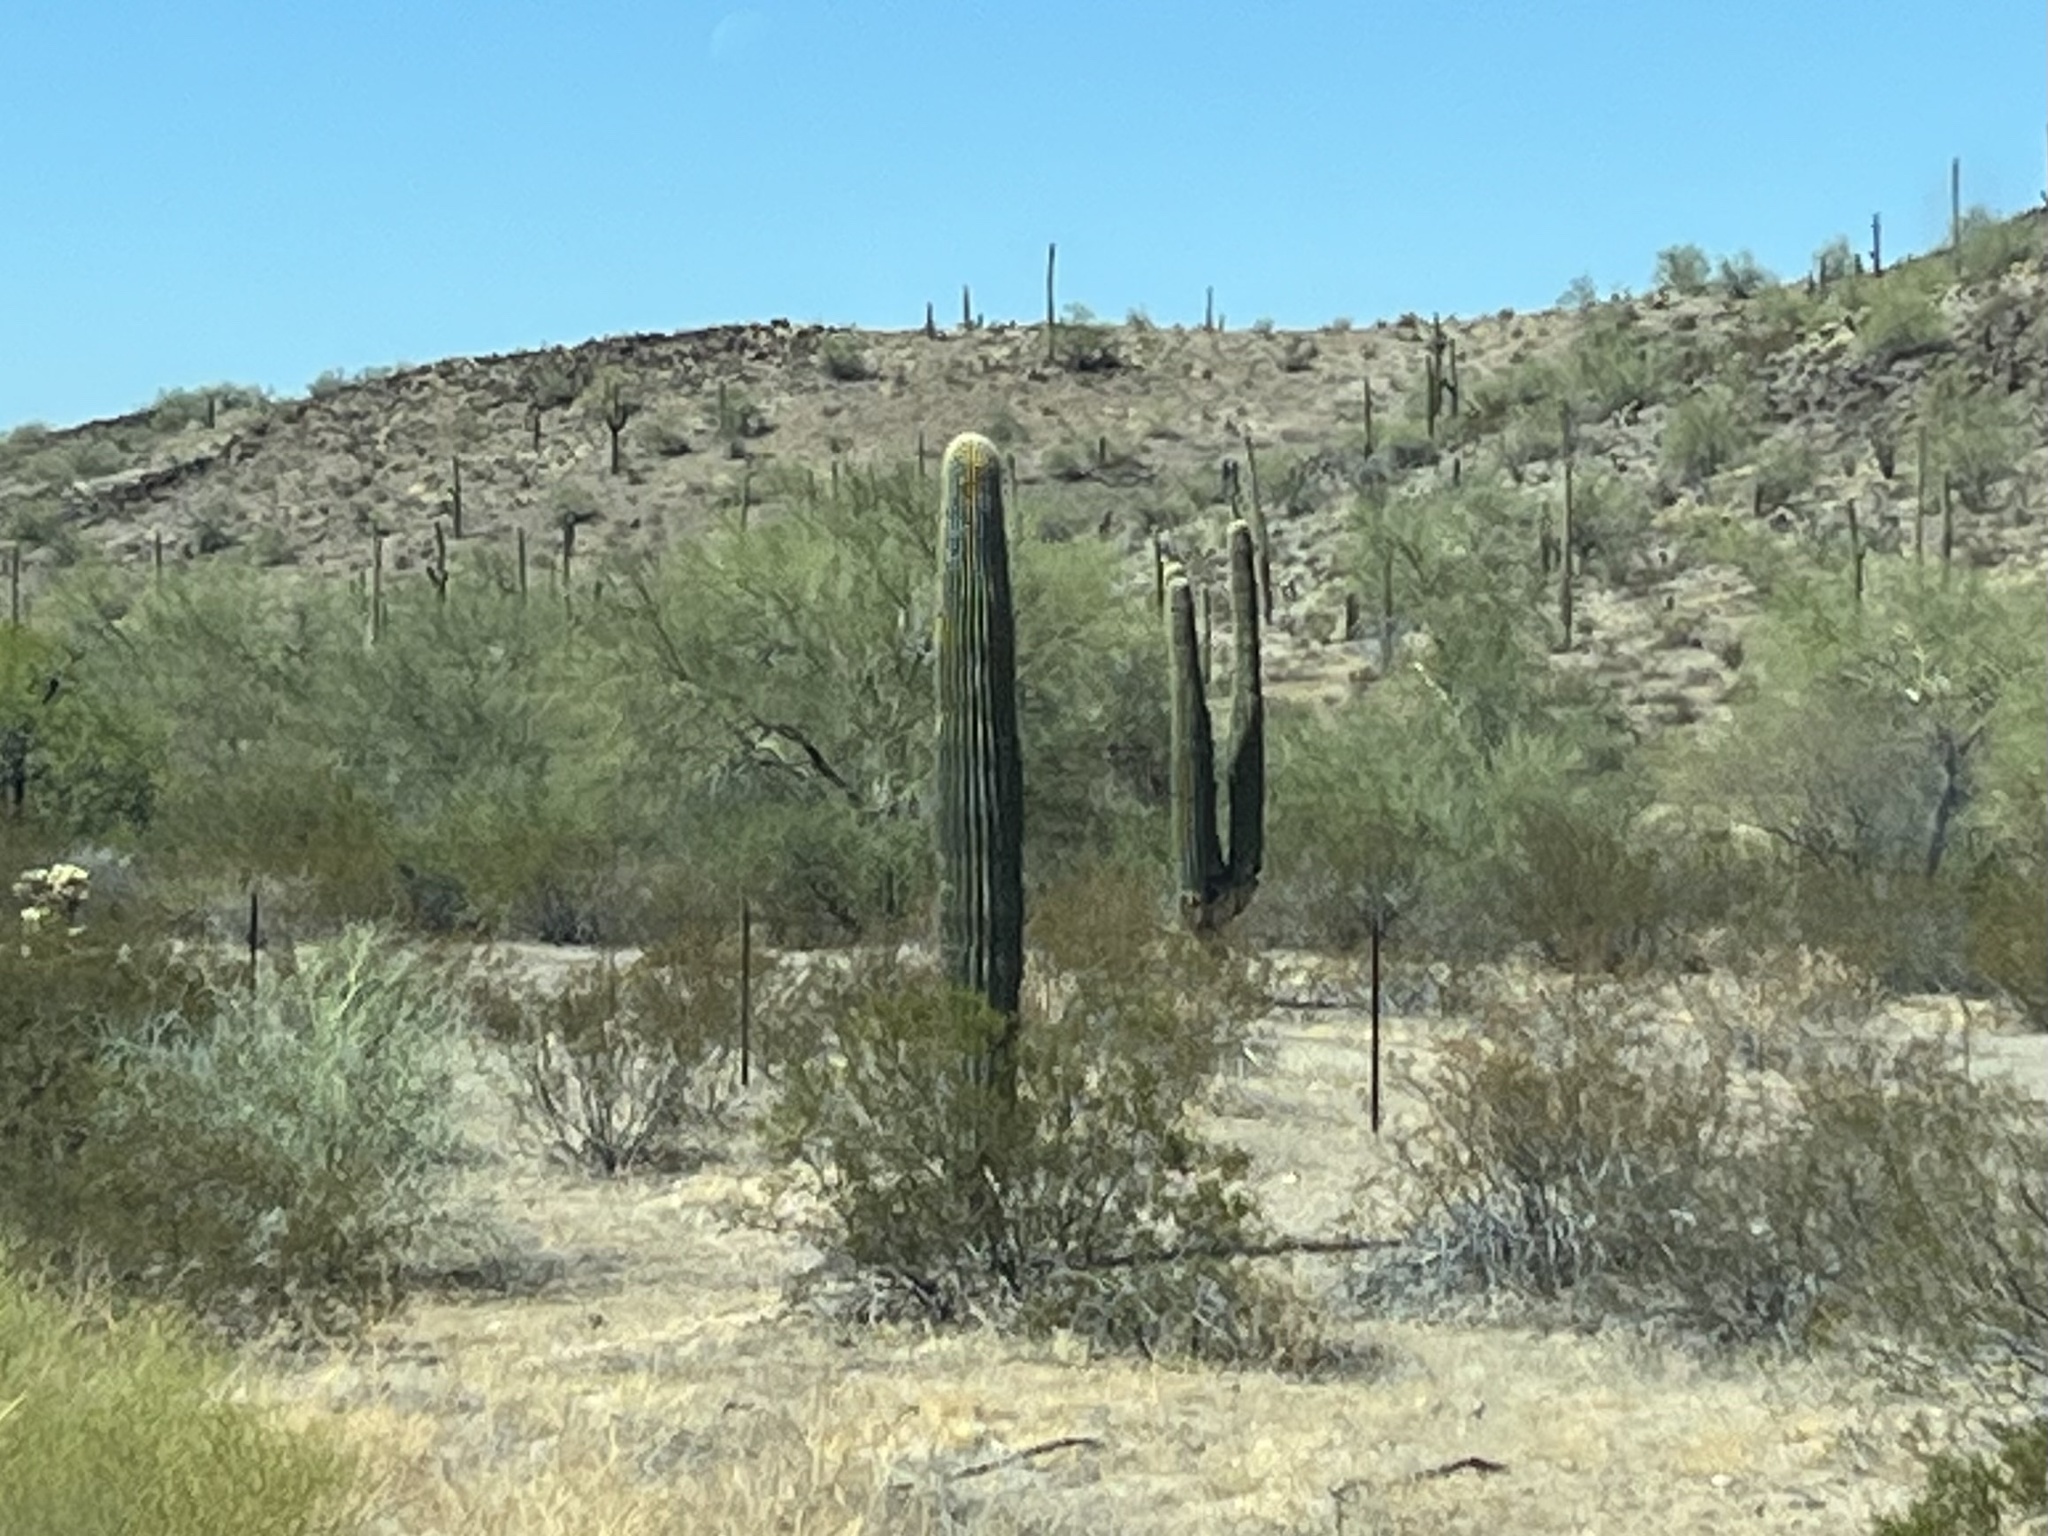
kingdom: Plantae
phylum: Tracheophyta
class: Magnoliopsida
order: Caryophyllales
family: Cactaceae
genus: Carnegiea
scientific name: Carnegiea gigantea
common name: Saguaro
